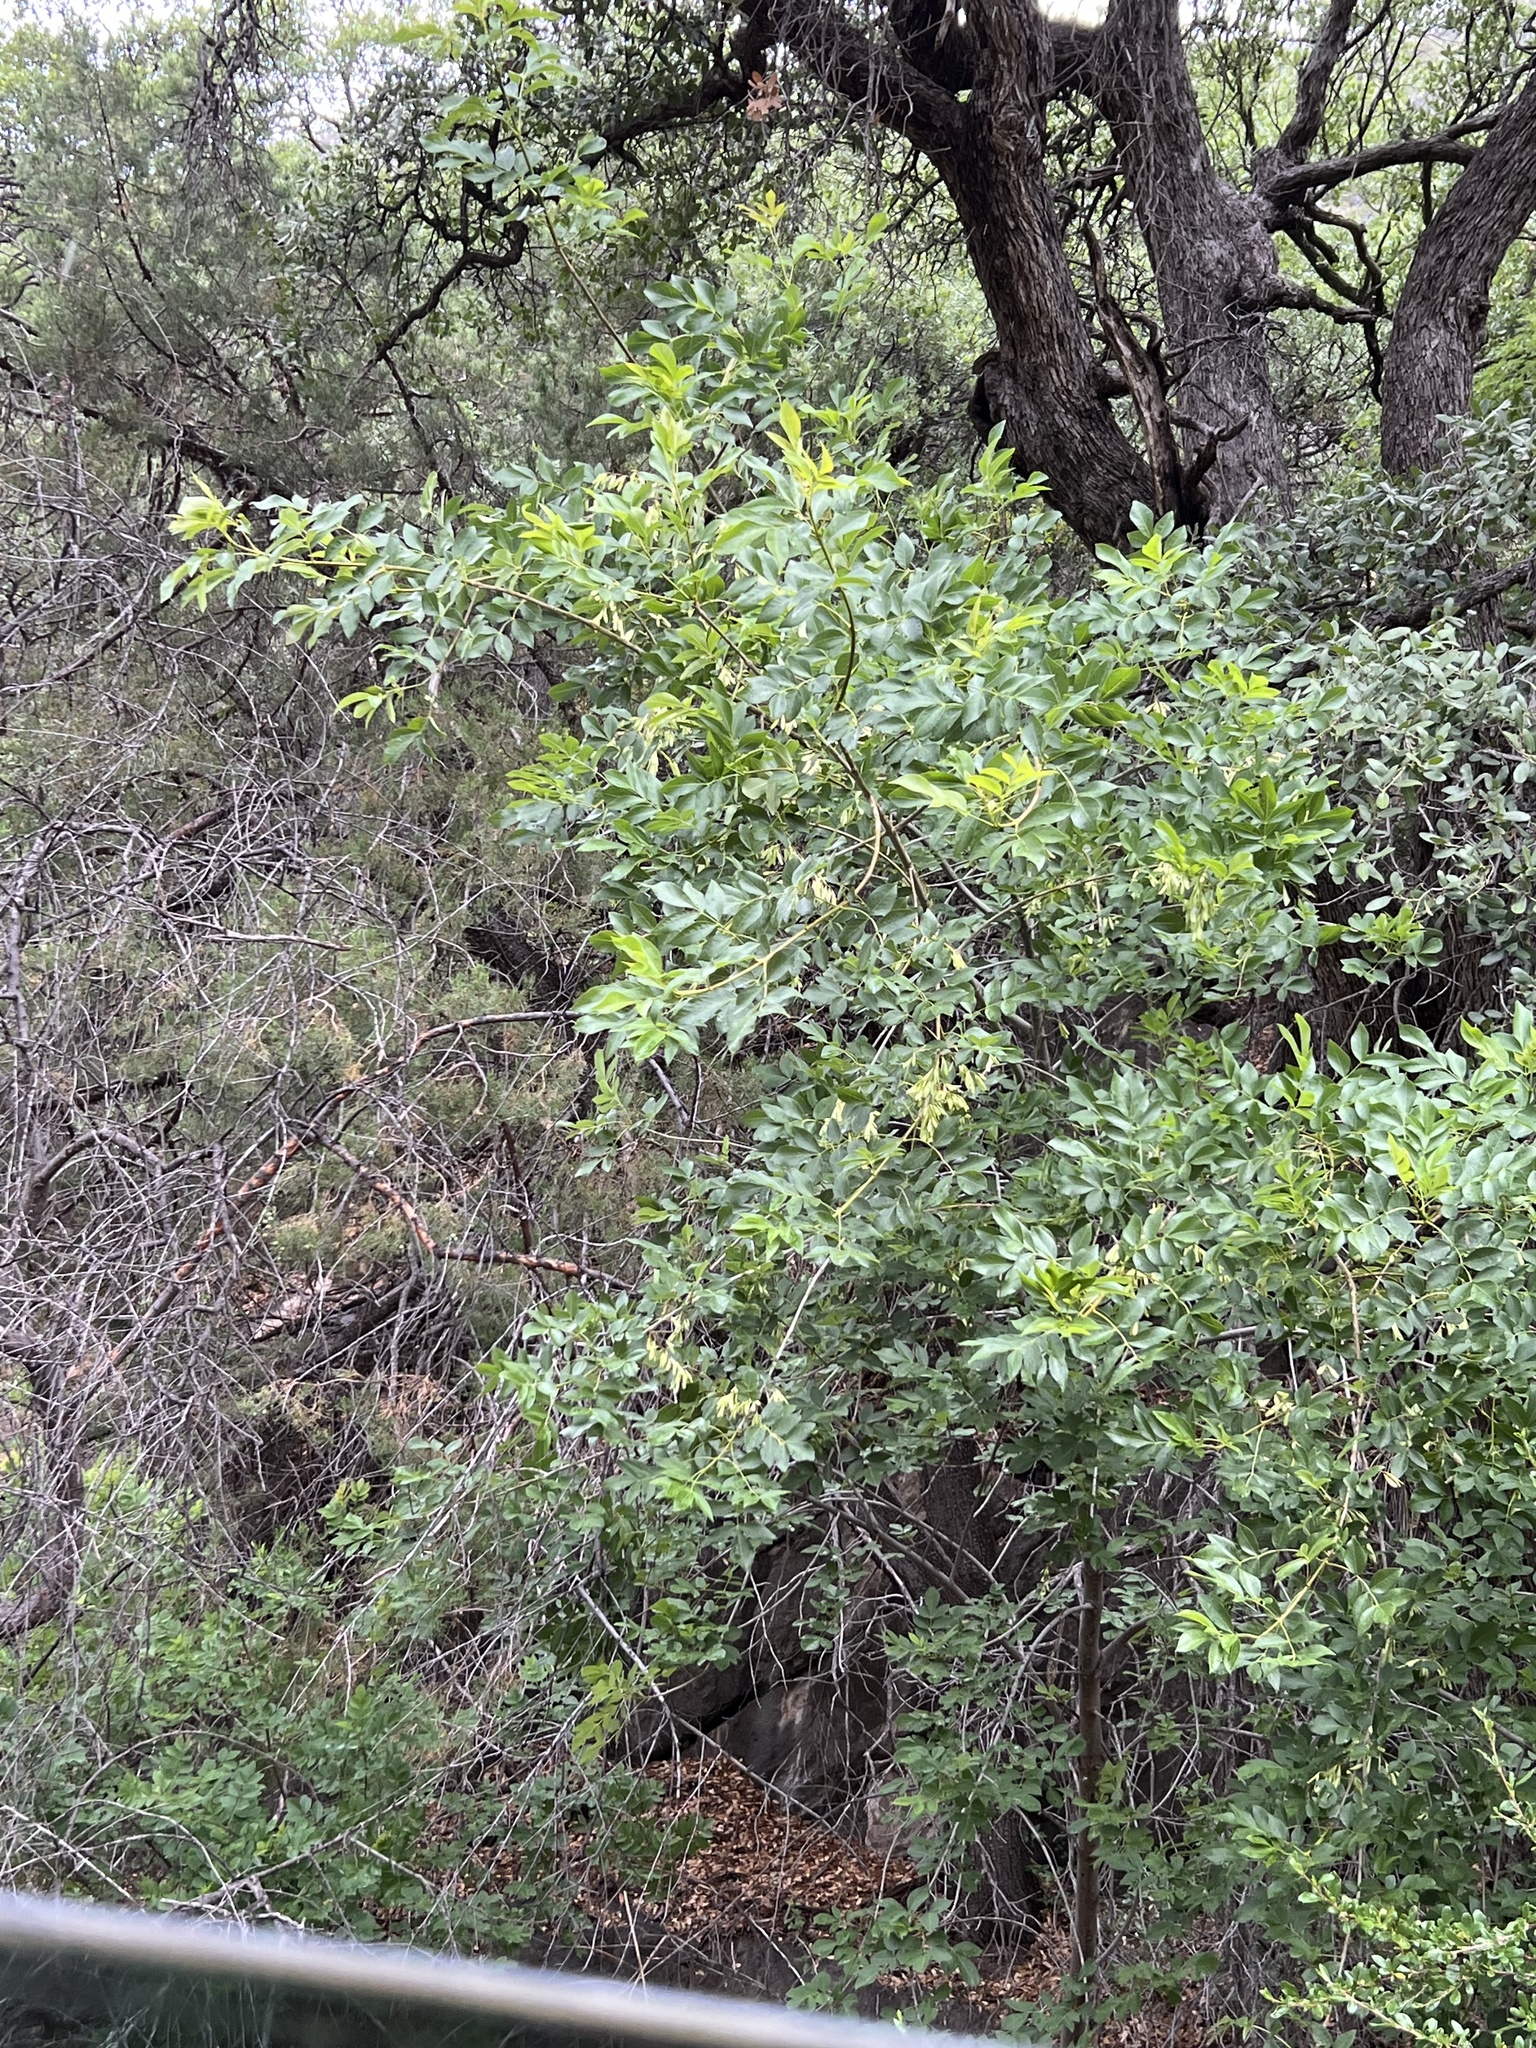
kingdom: Plantae
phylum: Tracheophyta
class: Magnoliopsida
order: Lamiales
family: Oleaceae
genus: Fraxinus
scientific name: Fraxinus velutina
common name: Arizon ash
